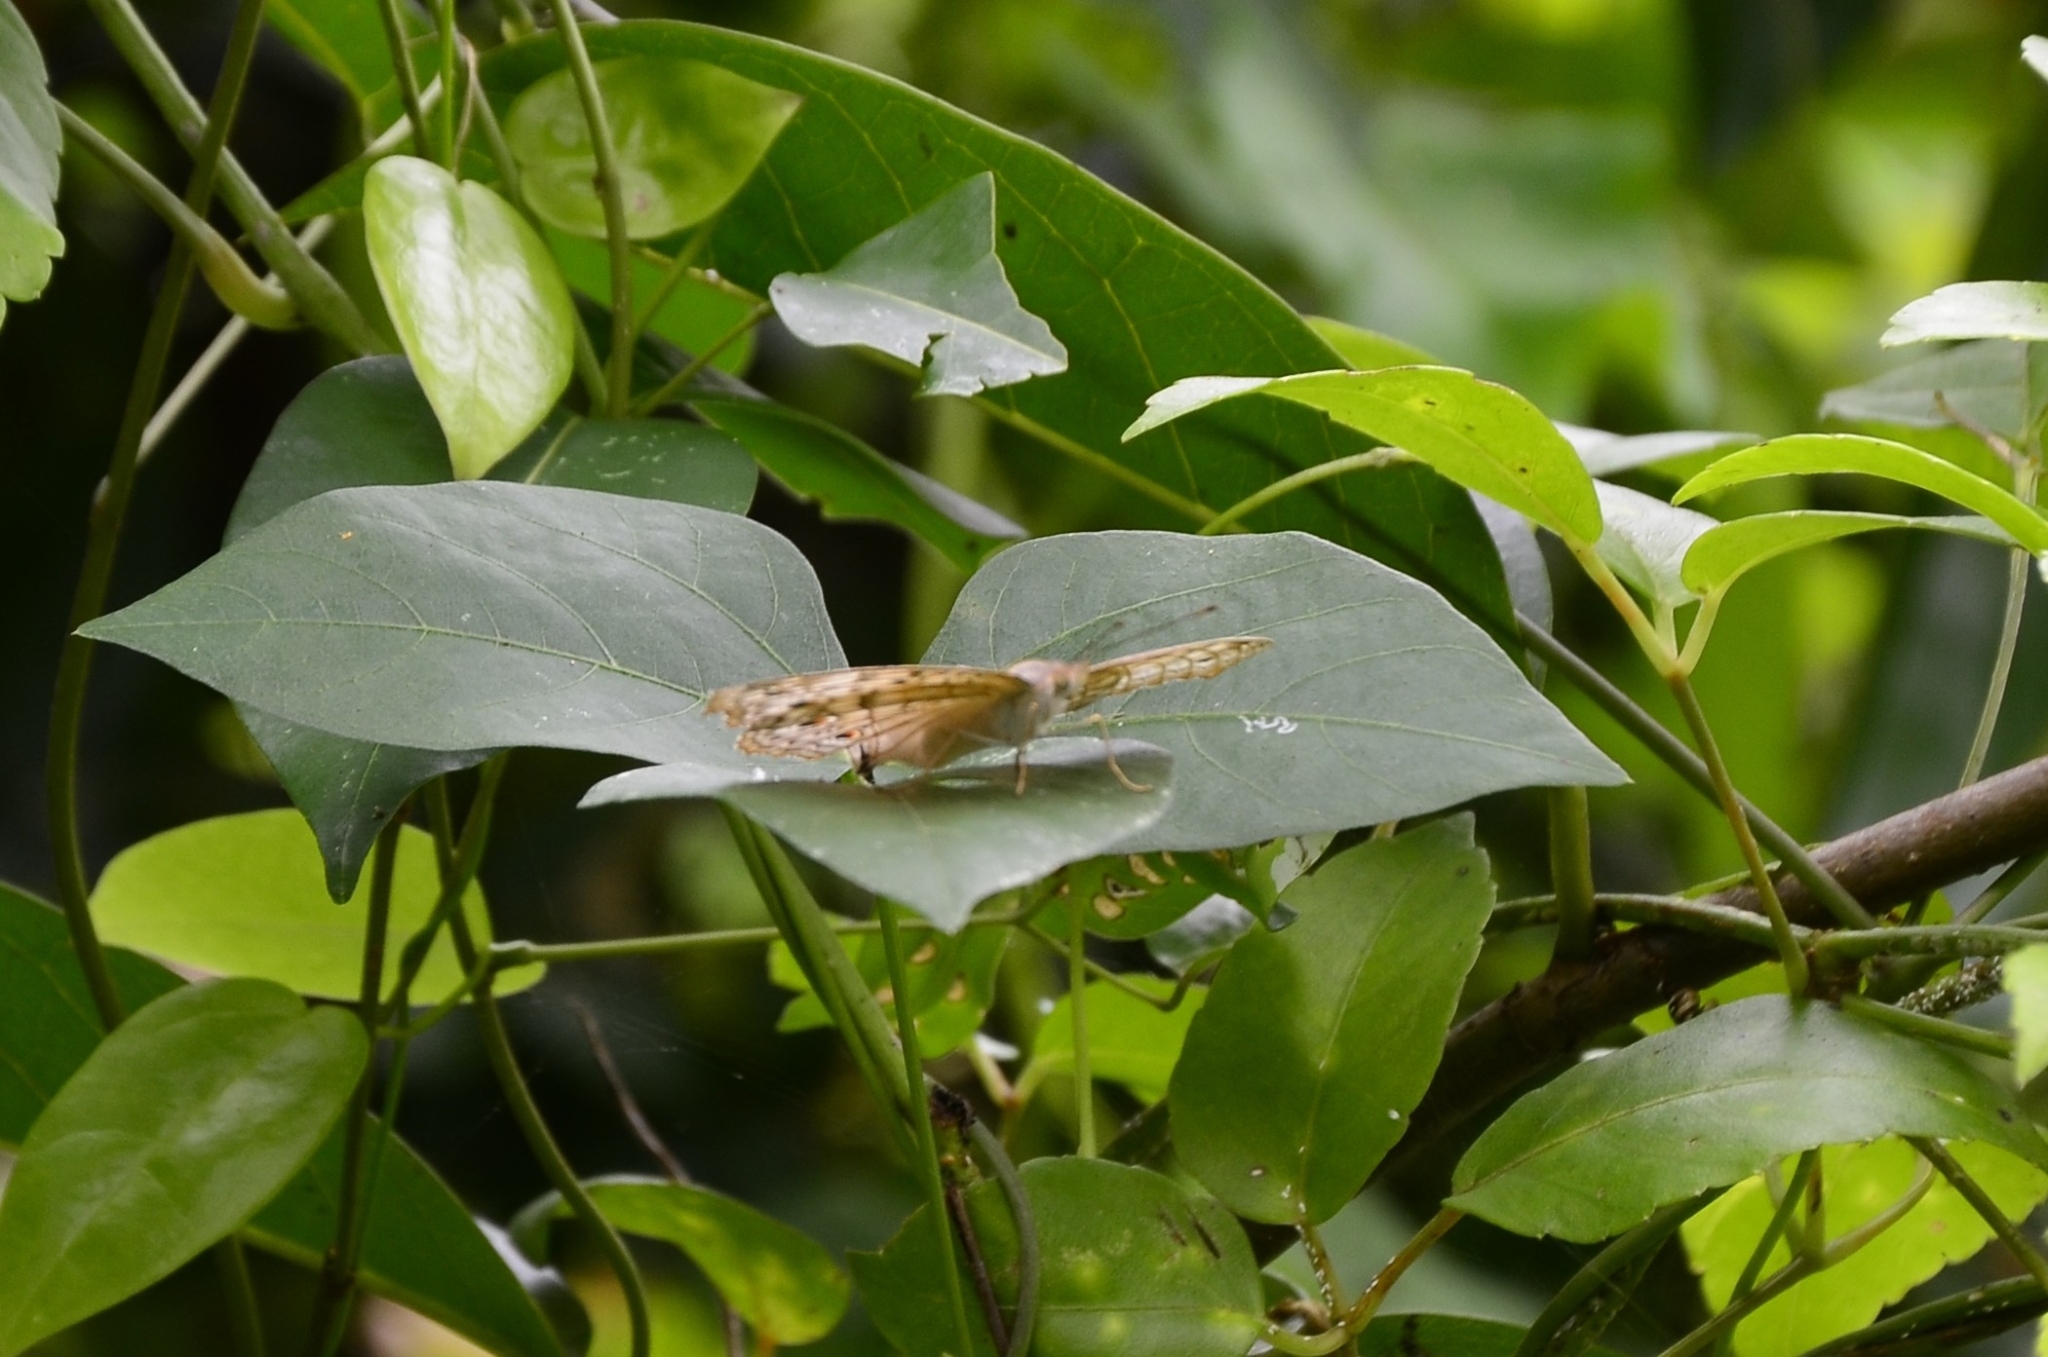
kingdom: Animalia
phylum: Arthropoda
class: Insecta
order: Lepidoptera
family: Nymphalidae
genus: Junonia
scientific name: Junonia atlites
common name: Grey pansy
